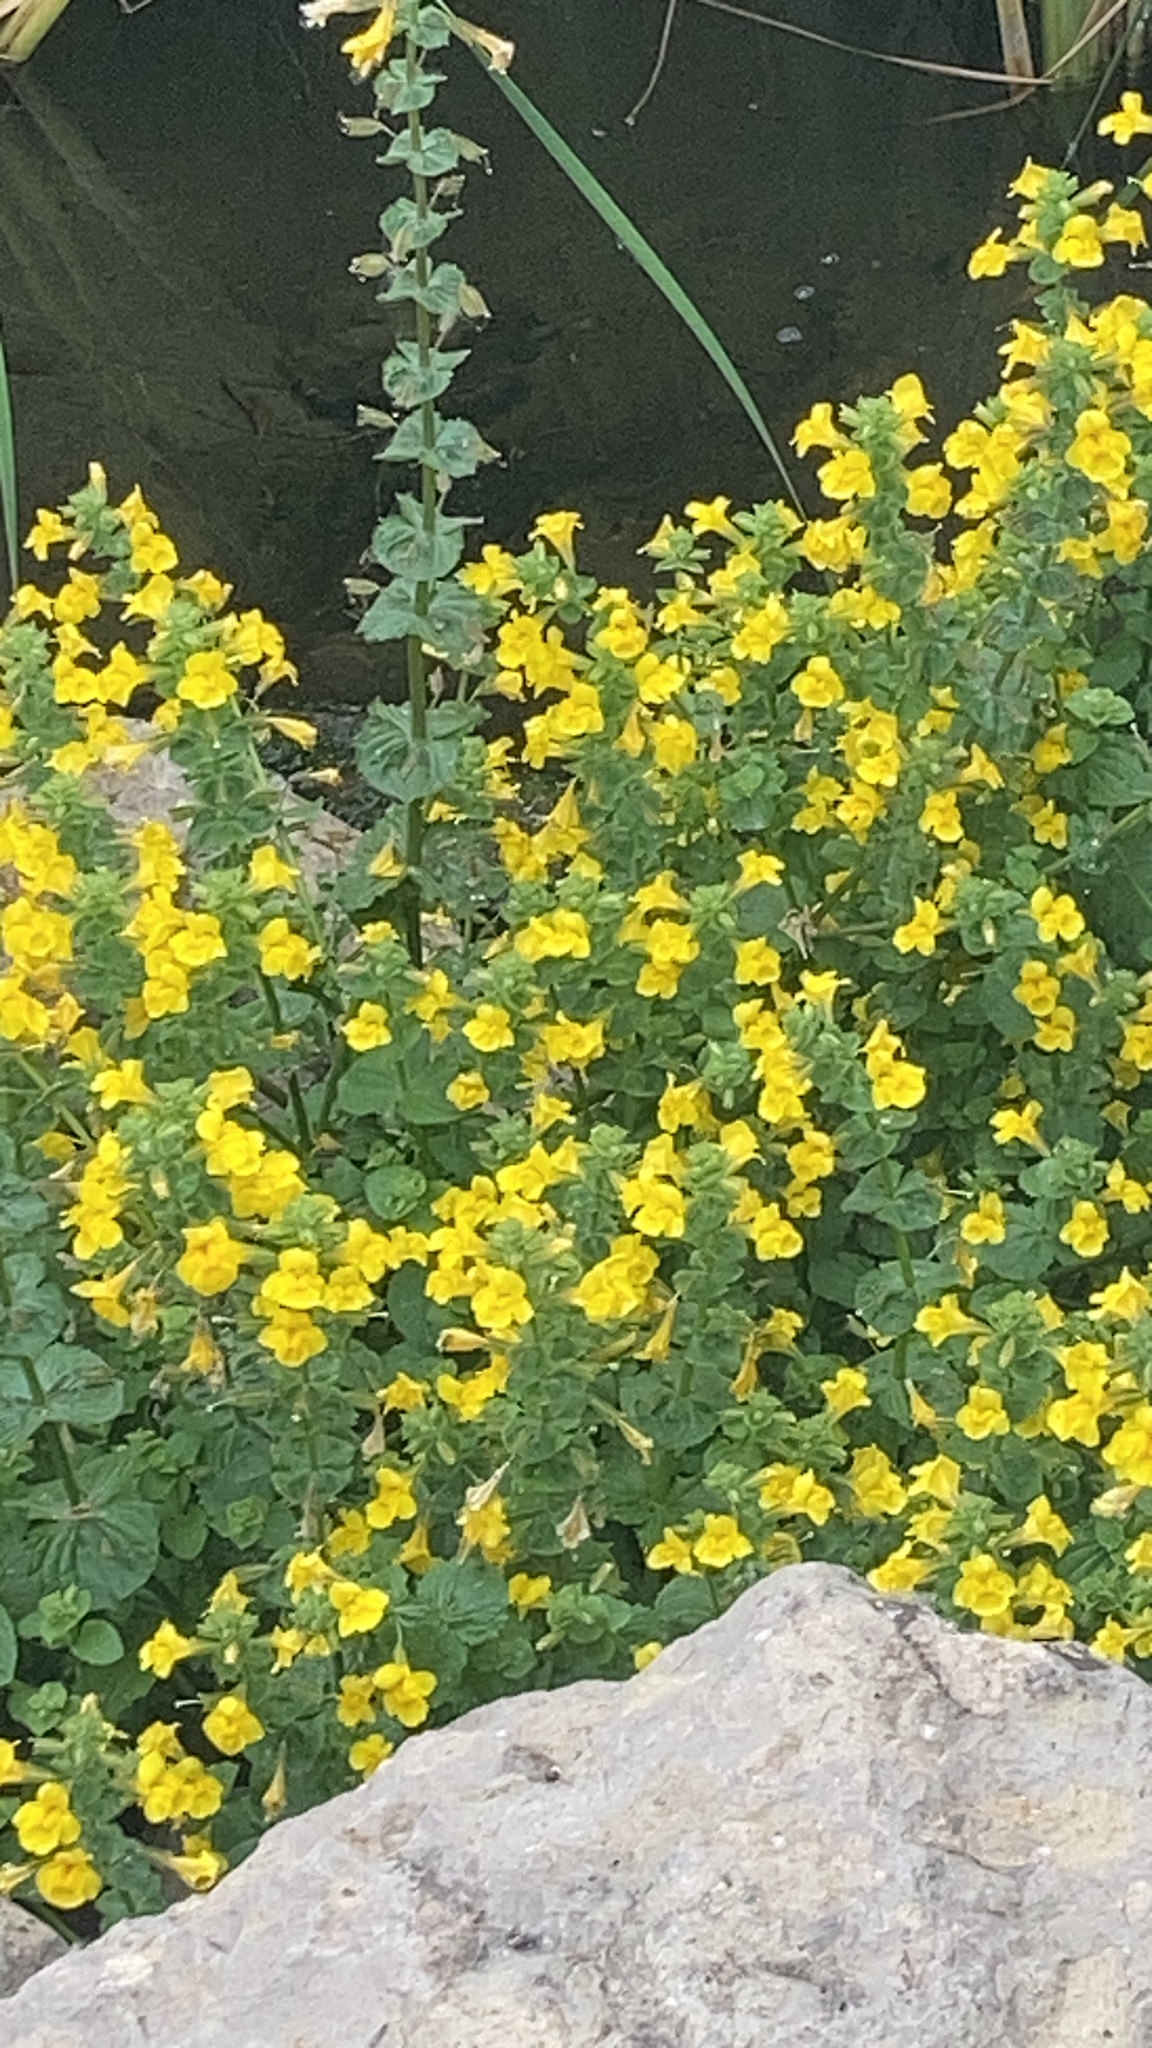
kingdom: Plantae
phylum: Tracheophyta
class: Magnoliopsida
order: Lamiales
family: Phrymaceae
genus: Erythranthe
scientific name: Erythranthe guttata
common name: Monkeyflower
